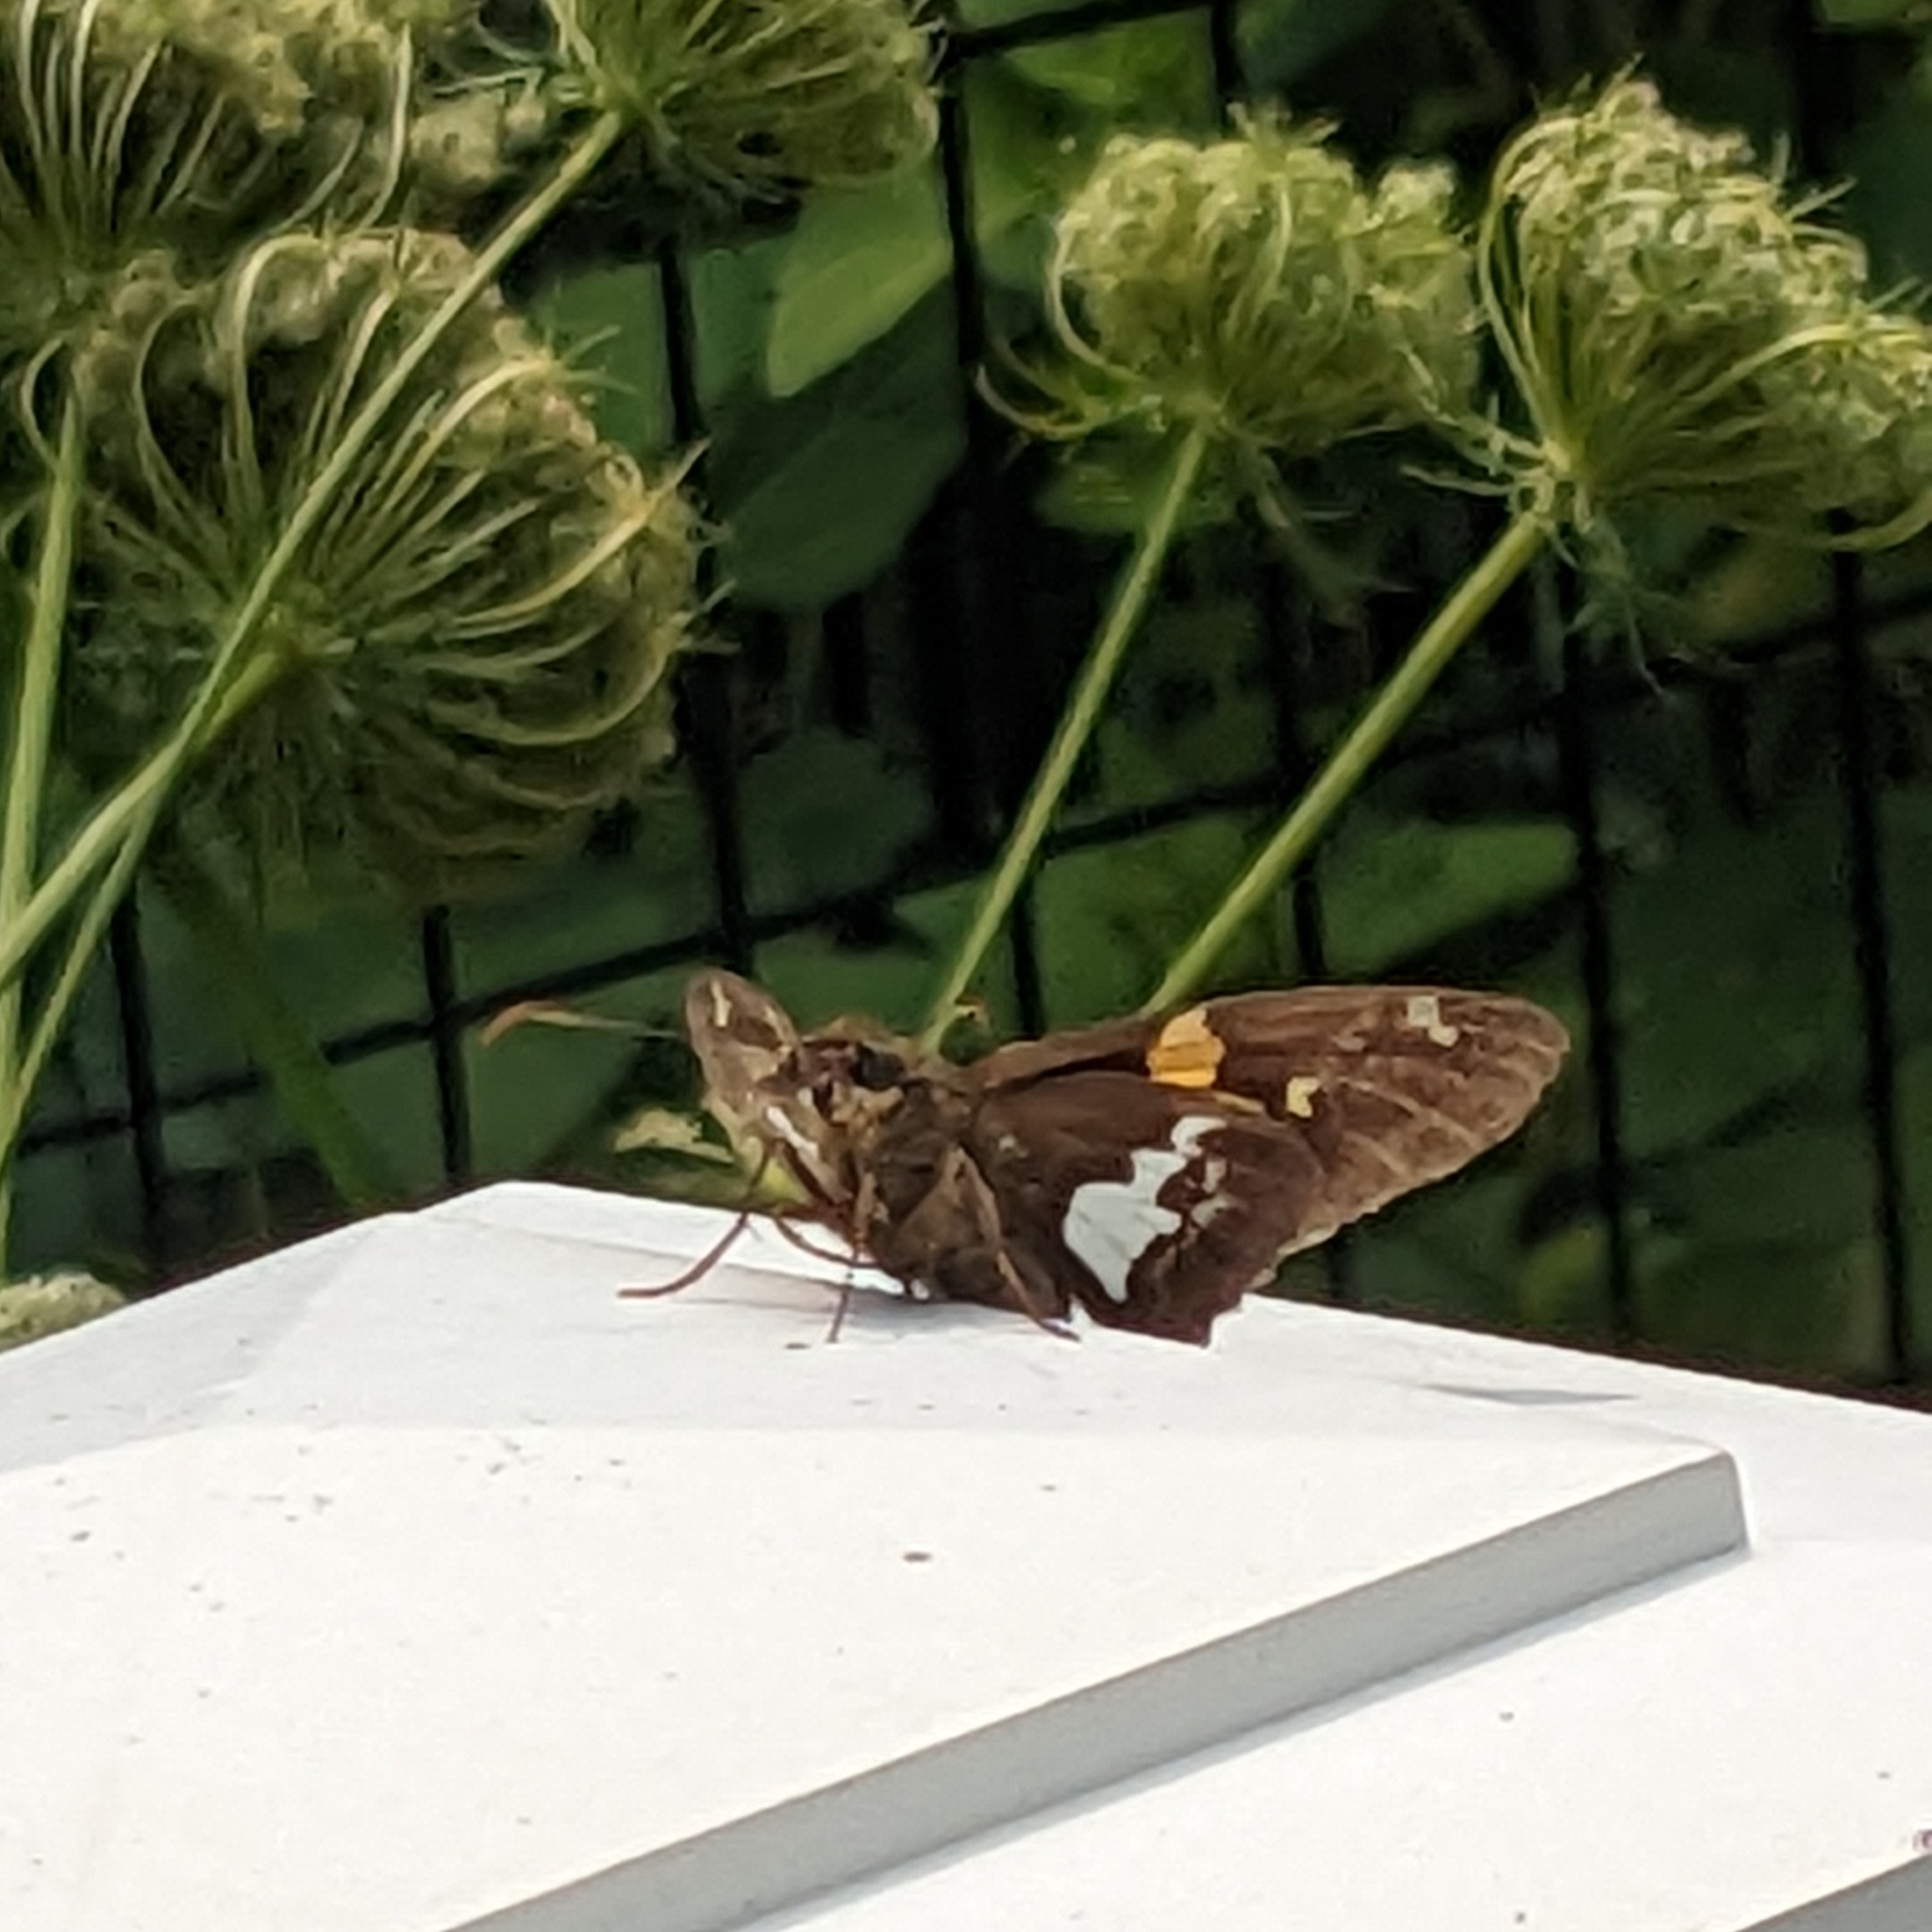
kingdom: Animalia
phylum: Arthropoda
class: Insecta
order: Lepidoptera
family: Hesperiidae
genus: Epargyreus
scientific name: Epargyreus clarus
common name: Silver-spotted skipper
